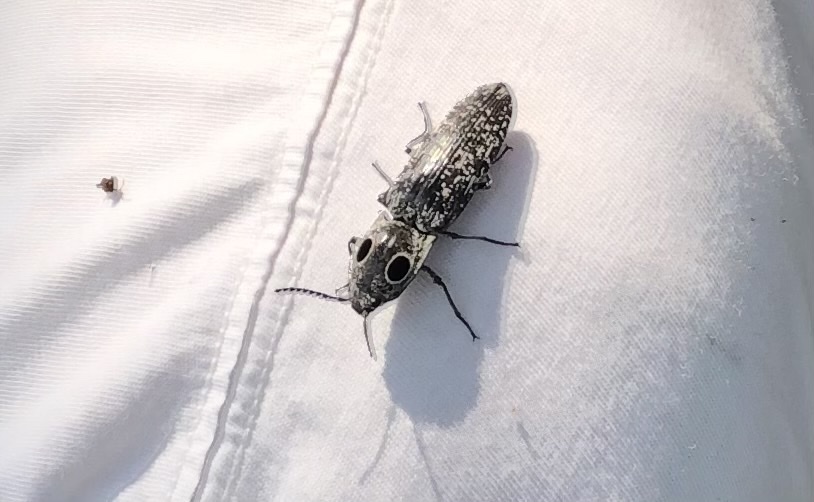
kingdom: Animalia
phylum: Arthropoda
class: Insecta
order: Coleoptera
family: Elateridae
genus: Alaus
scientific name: Alaus oculatus
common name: Eastern eyed click beetle
